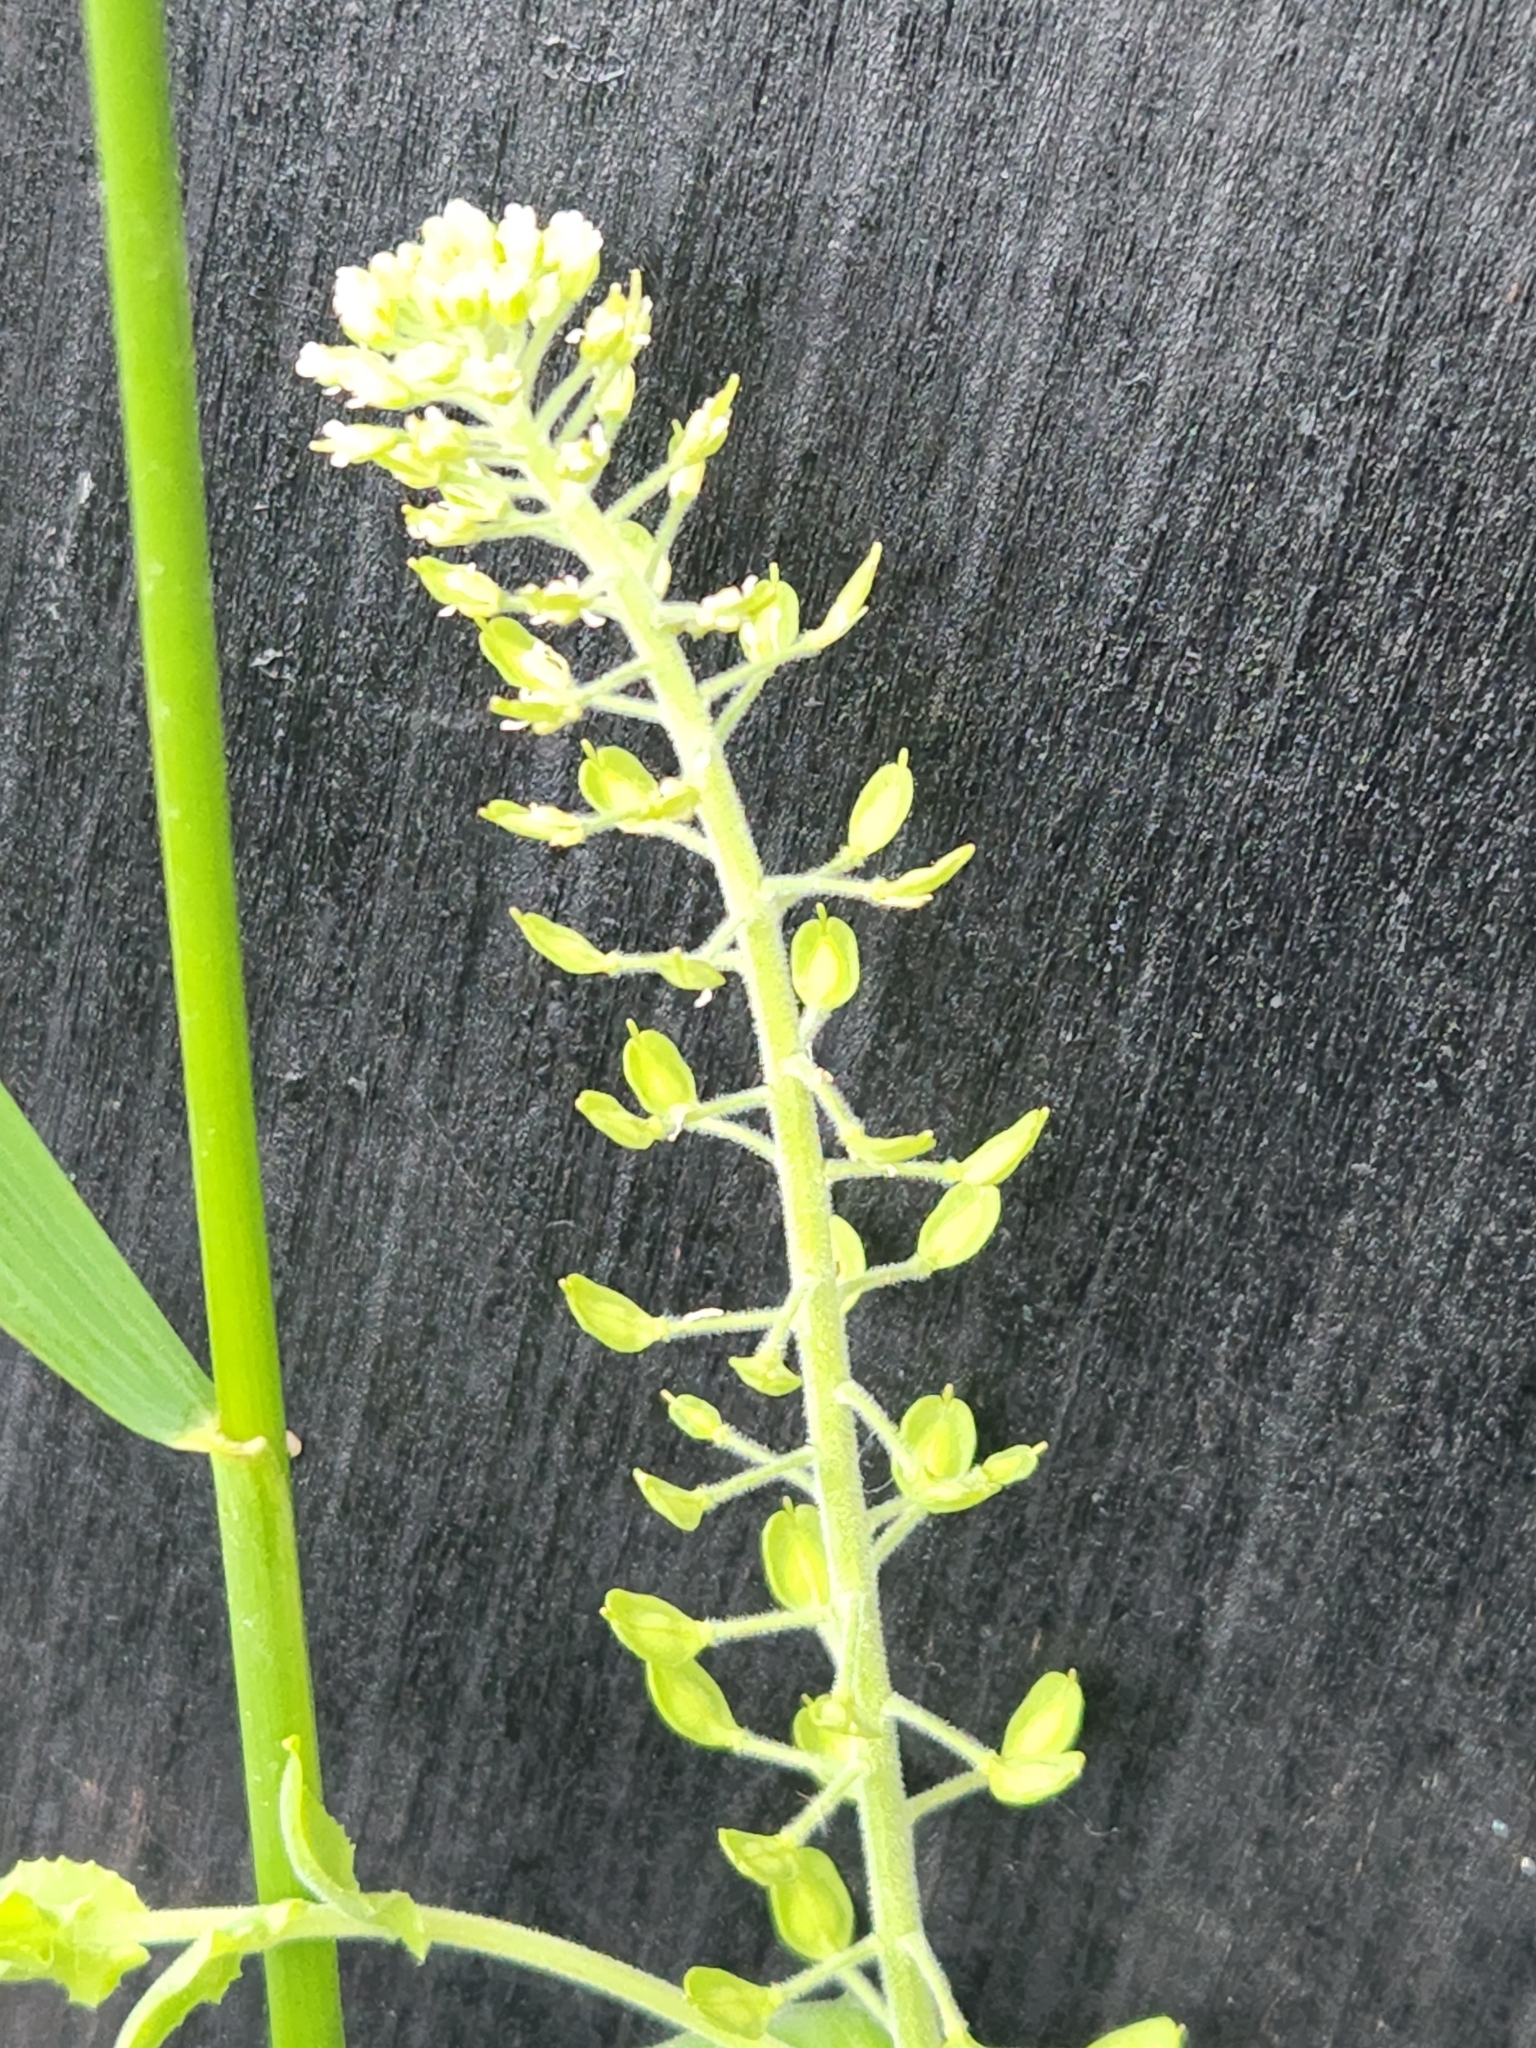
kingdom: Plantae
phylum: Tracheophyta
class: Magnoliopsida
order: Brassicales
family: Brassicaceae
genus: Lepidium
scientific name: Lepidium campestre
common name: Field pepperwort
